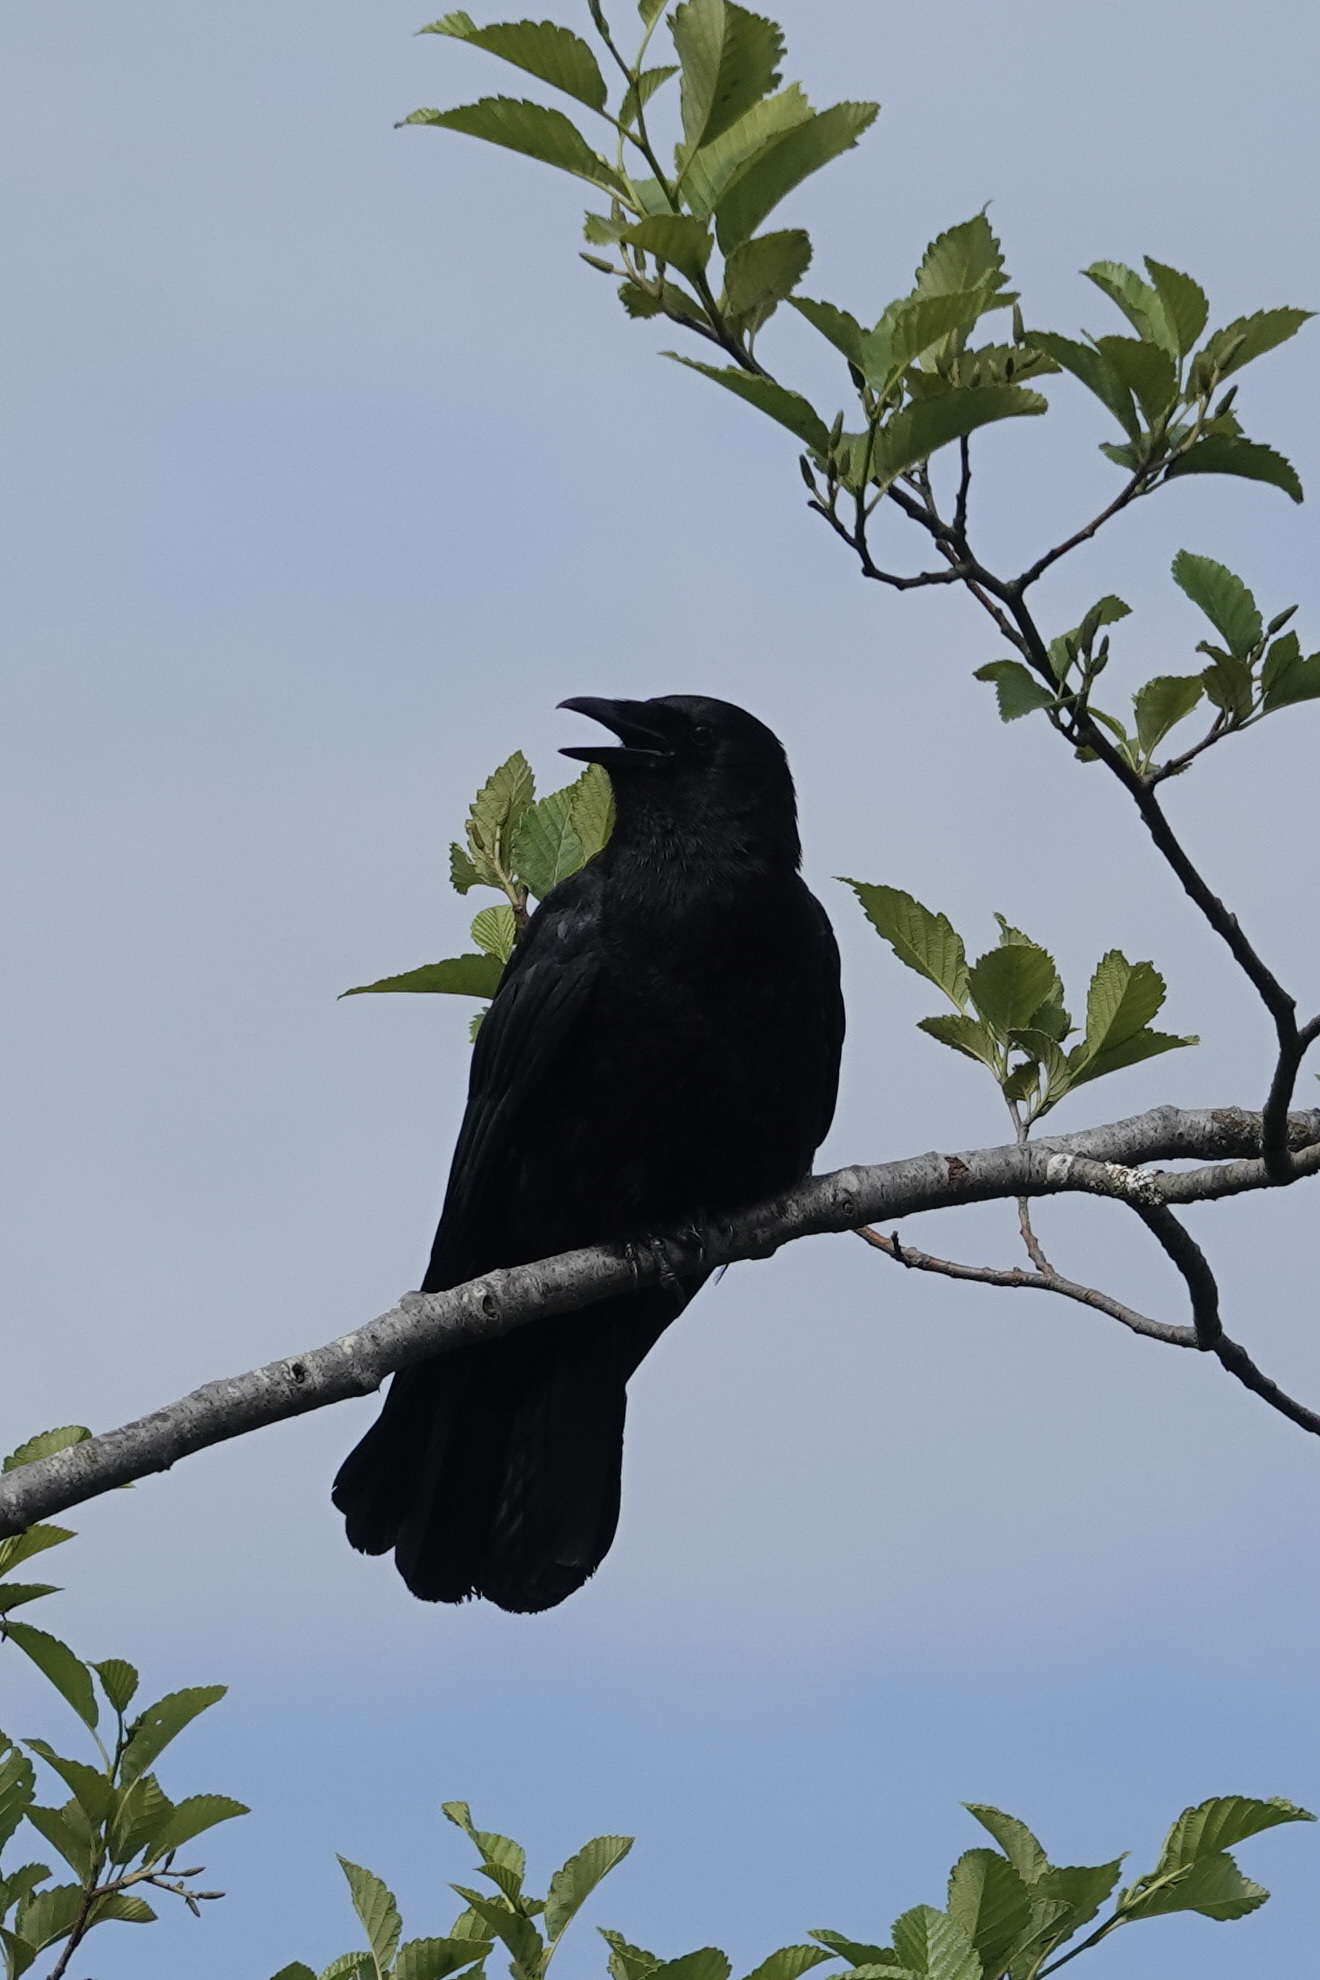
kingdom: Animalia
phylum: Chordata
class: Aves
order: Passeriformes
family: Corvidae
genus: Corvus
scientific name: Corvus brachyrhynchos
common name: American crow
